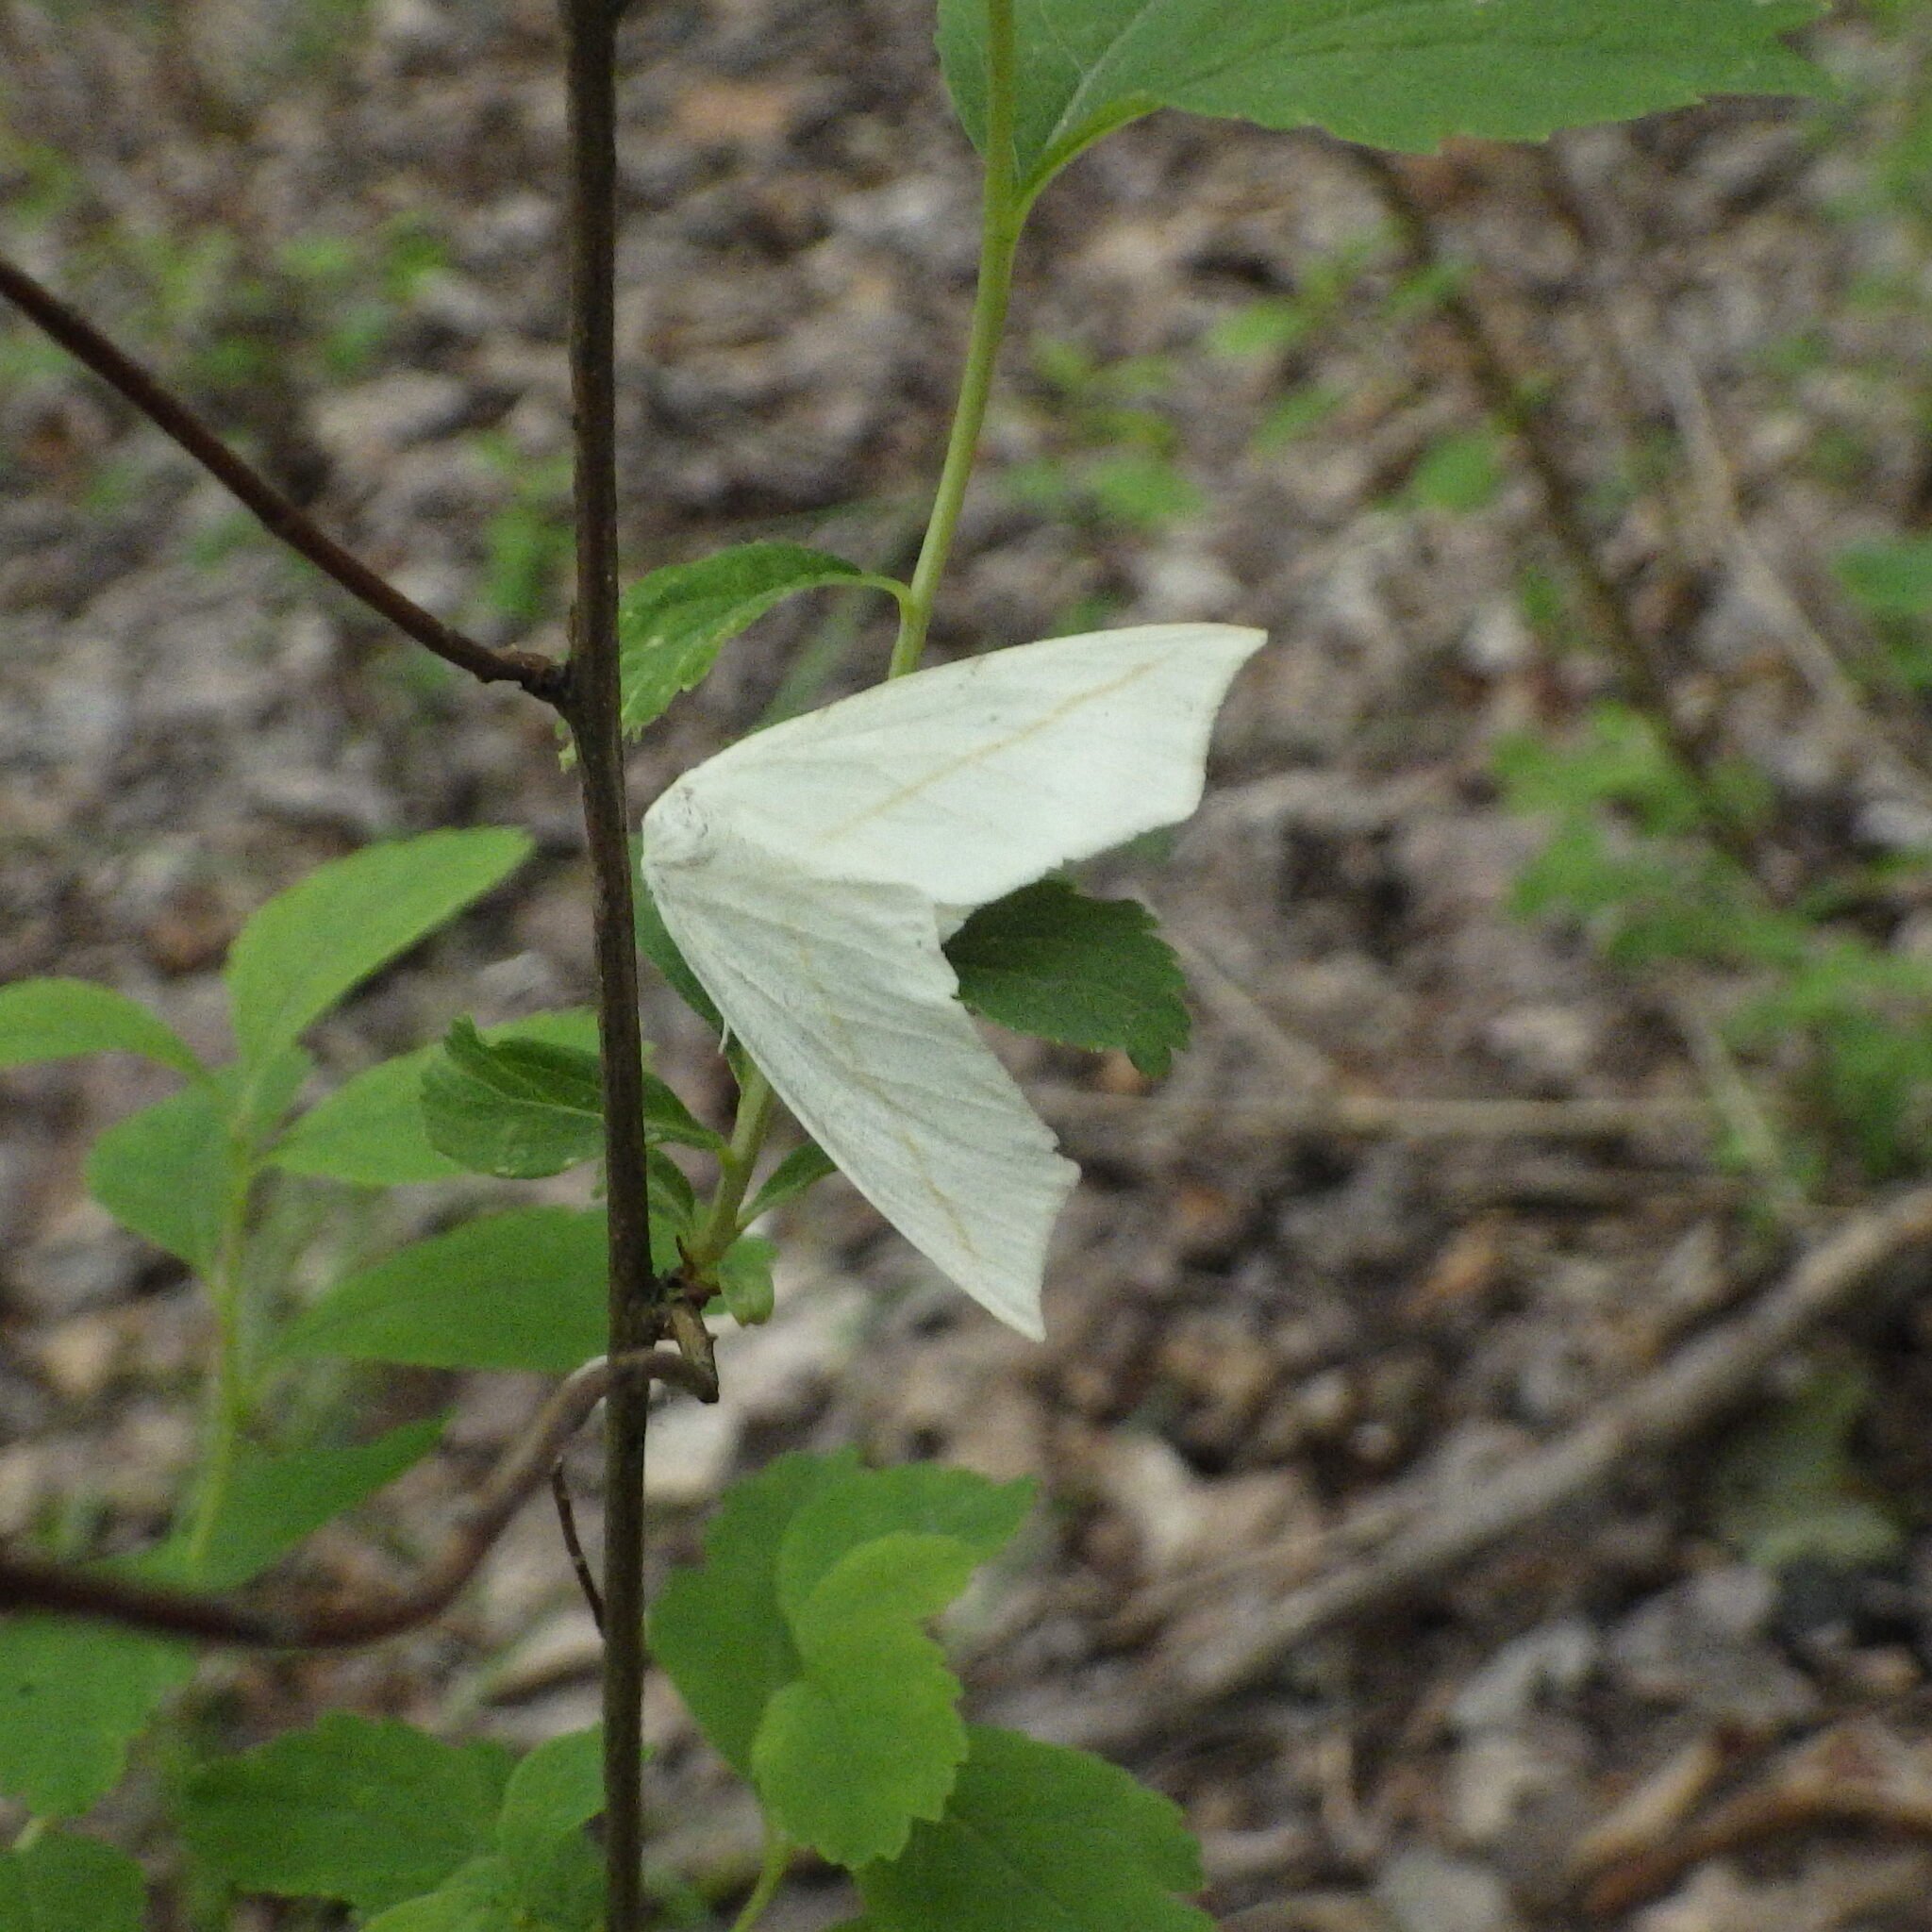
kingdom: Animalia
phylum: Arthropoda
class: Insecta
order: Lepidoptera
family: Geometridae
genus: Tetracis
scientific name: Tetracis cachexiata
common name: White slant-line
